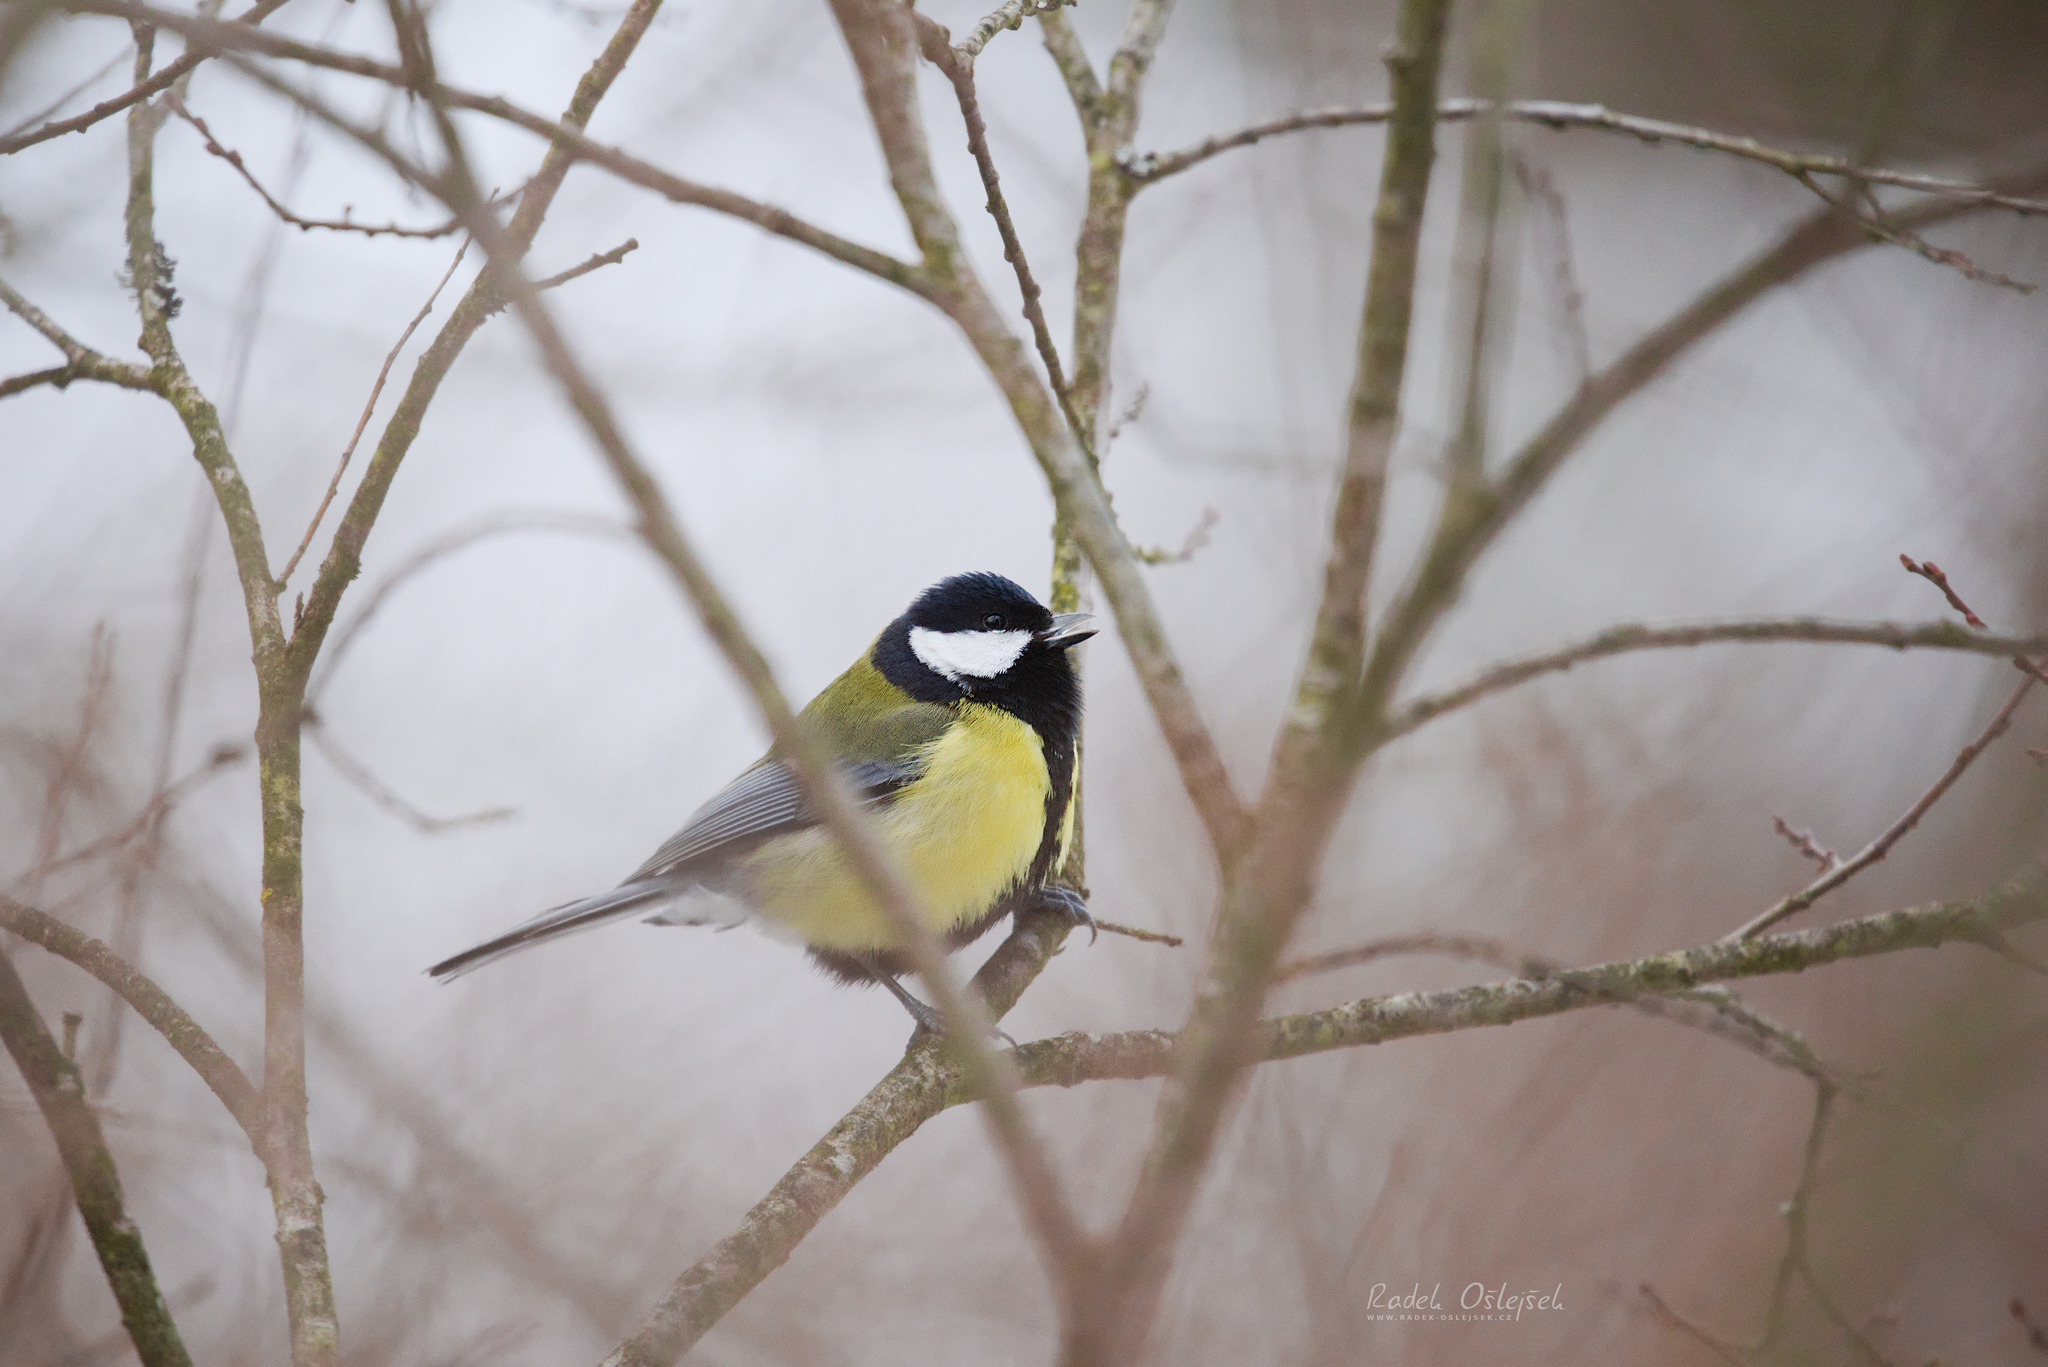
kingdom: Animalia
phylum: Chordata
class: Aves
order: Passeriformes
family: Paridae
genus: Parus
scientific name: Parus major
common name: Great tit
